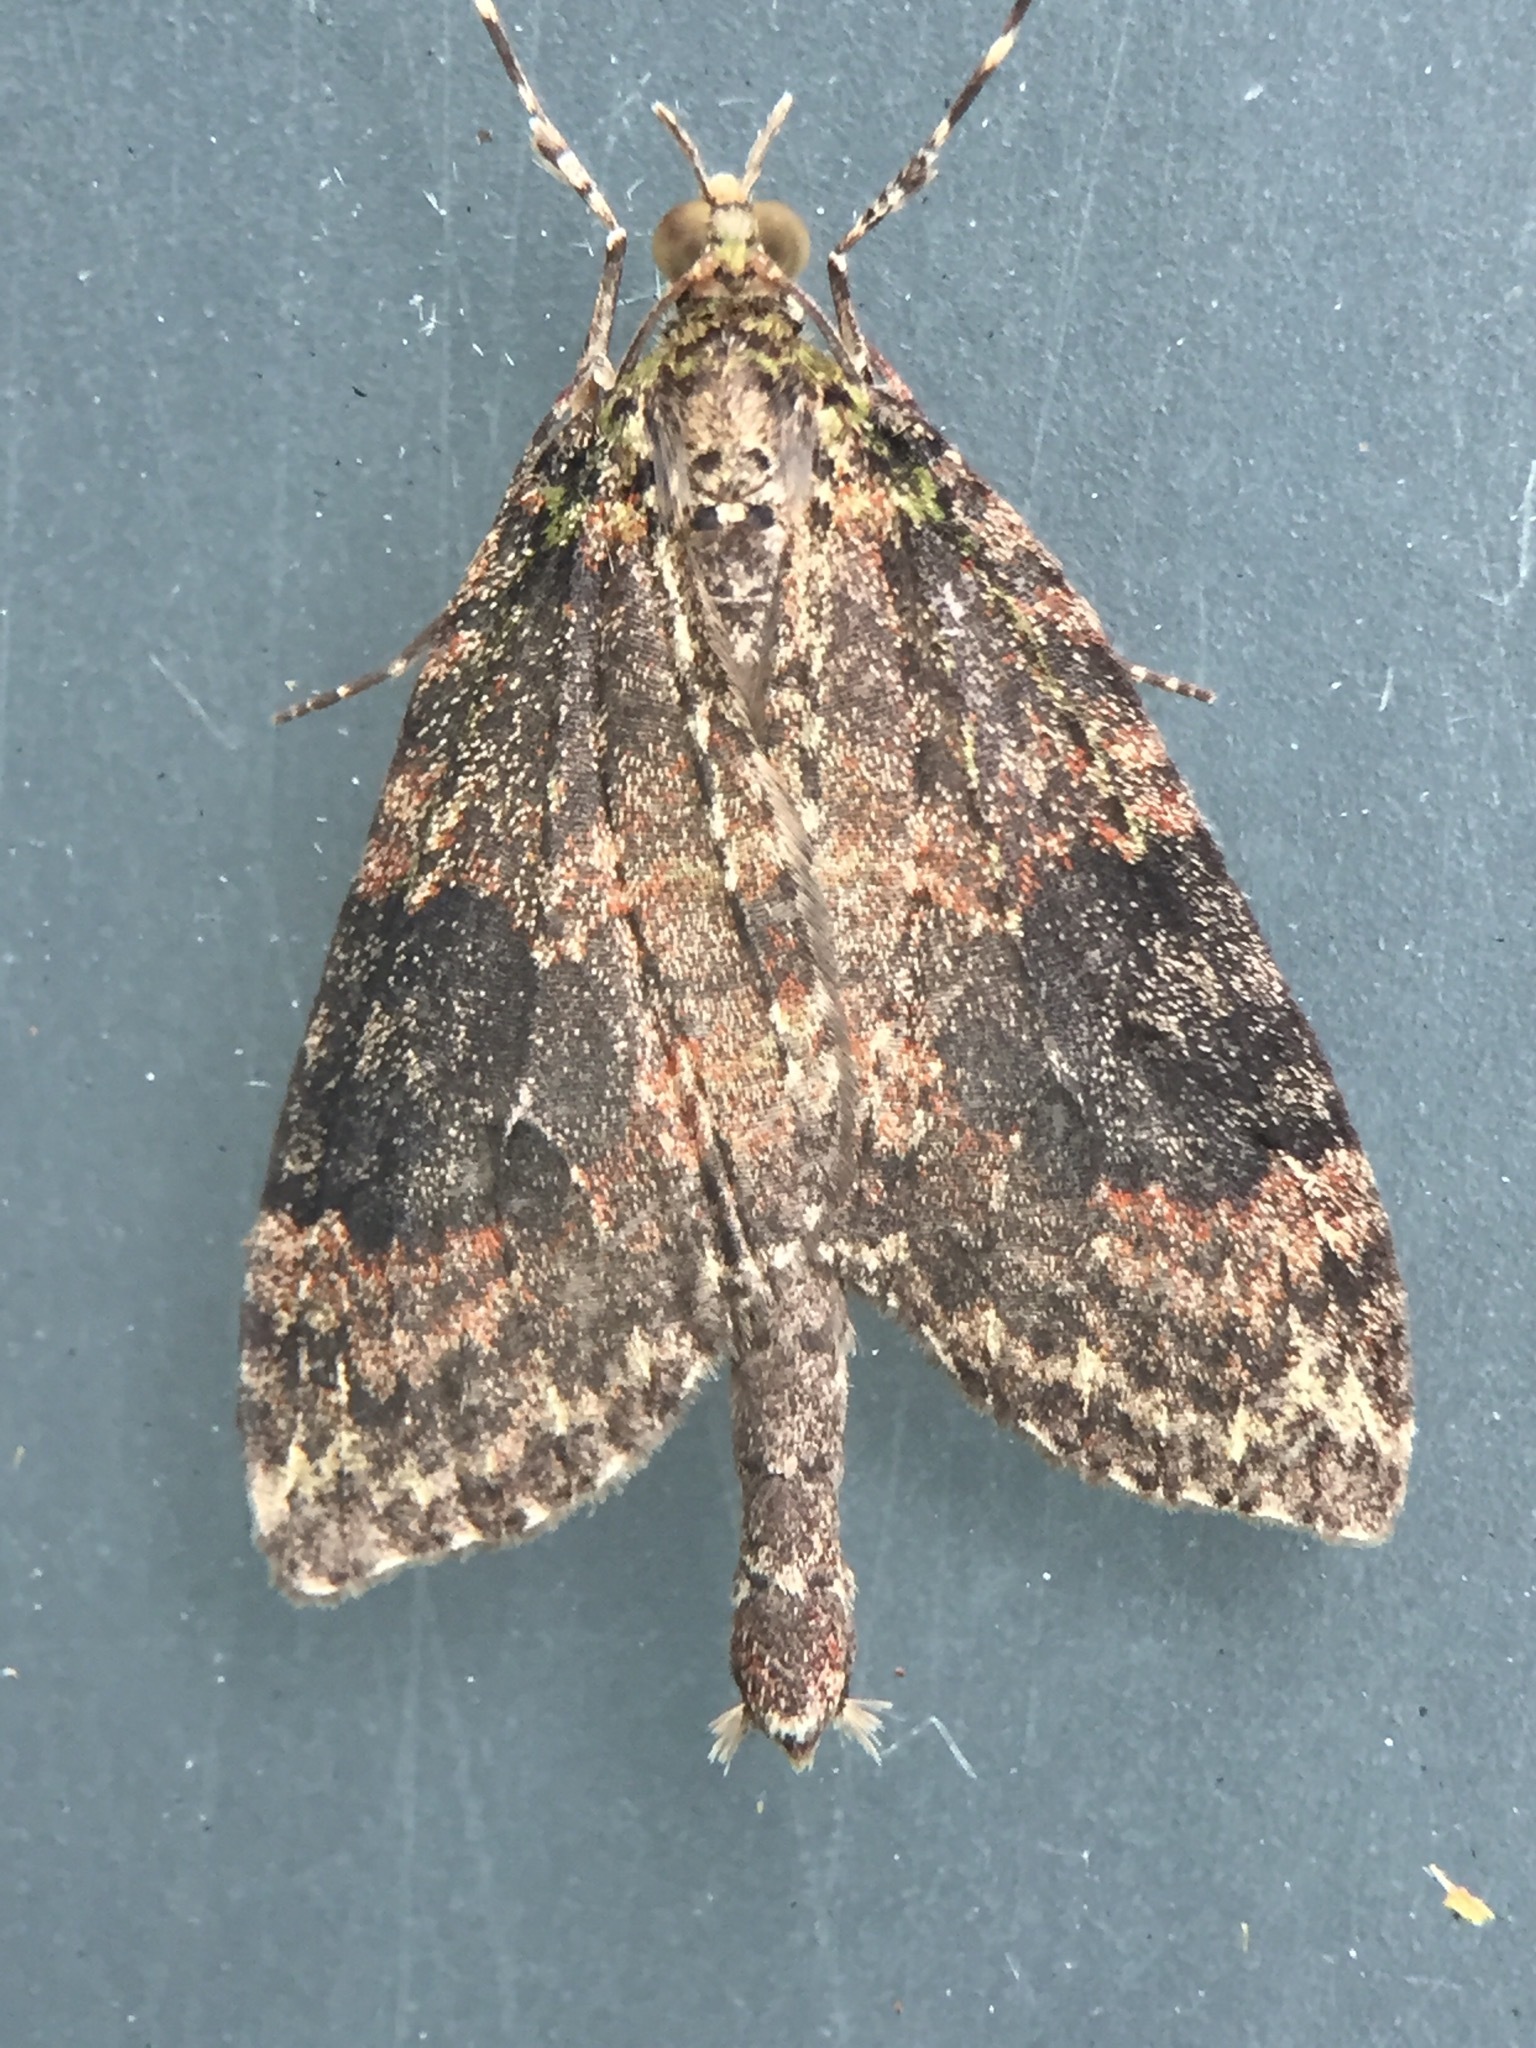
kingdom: Animalia
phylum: Arthropoda
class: Insecta
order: Lepidoptera
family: Geometridae
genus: Tatosoma
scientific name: Tatosoma transitaria
